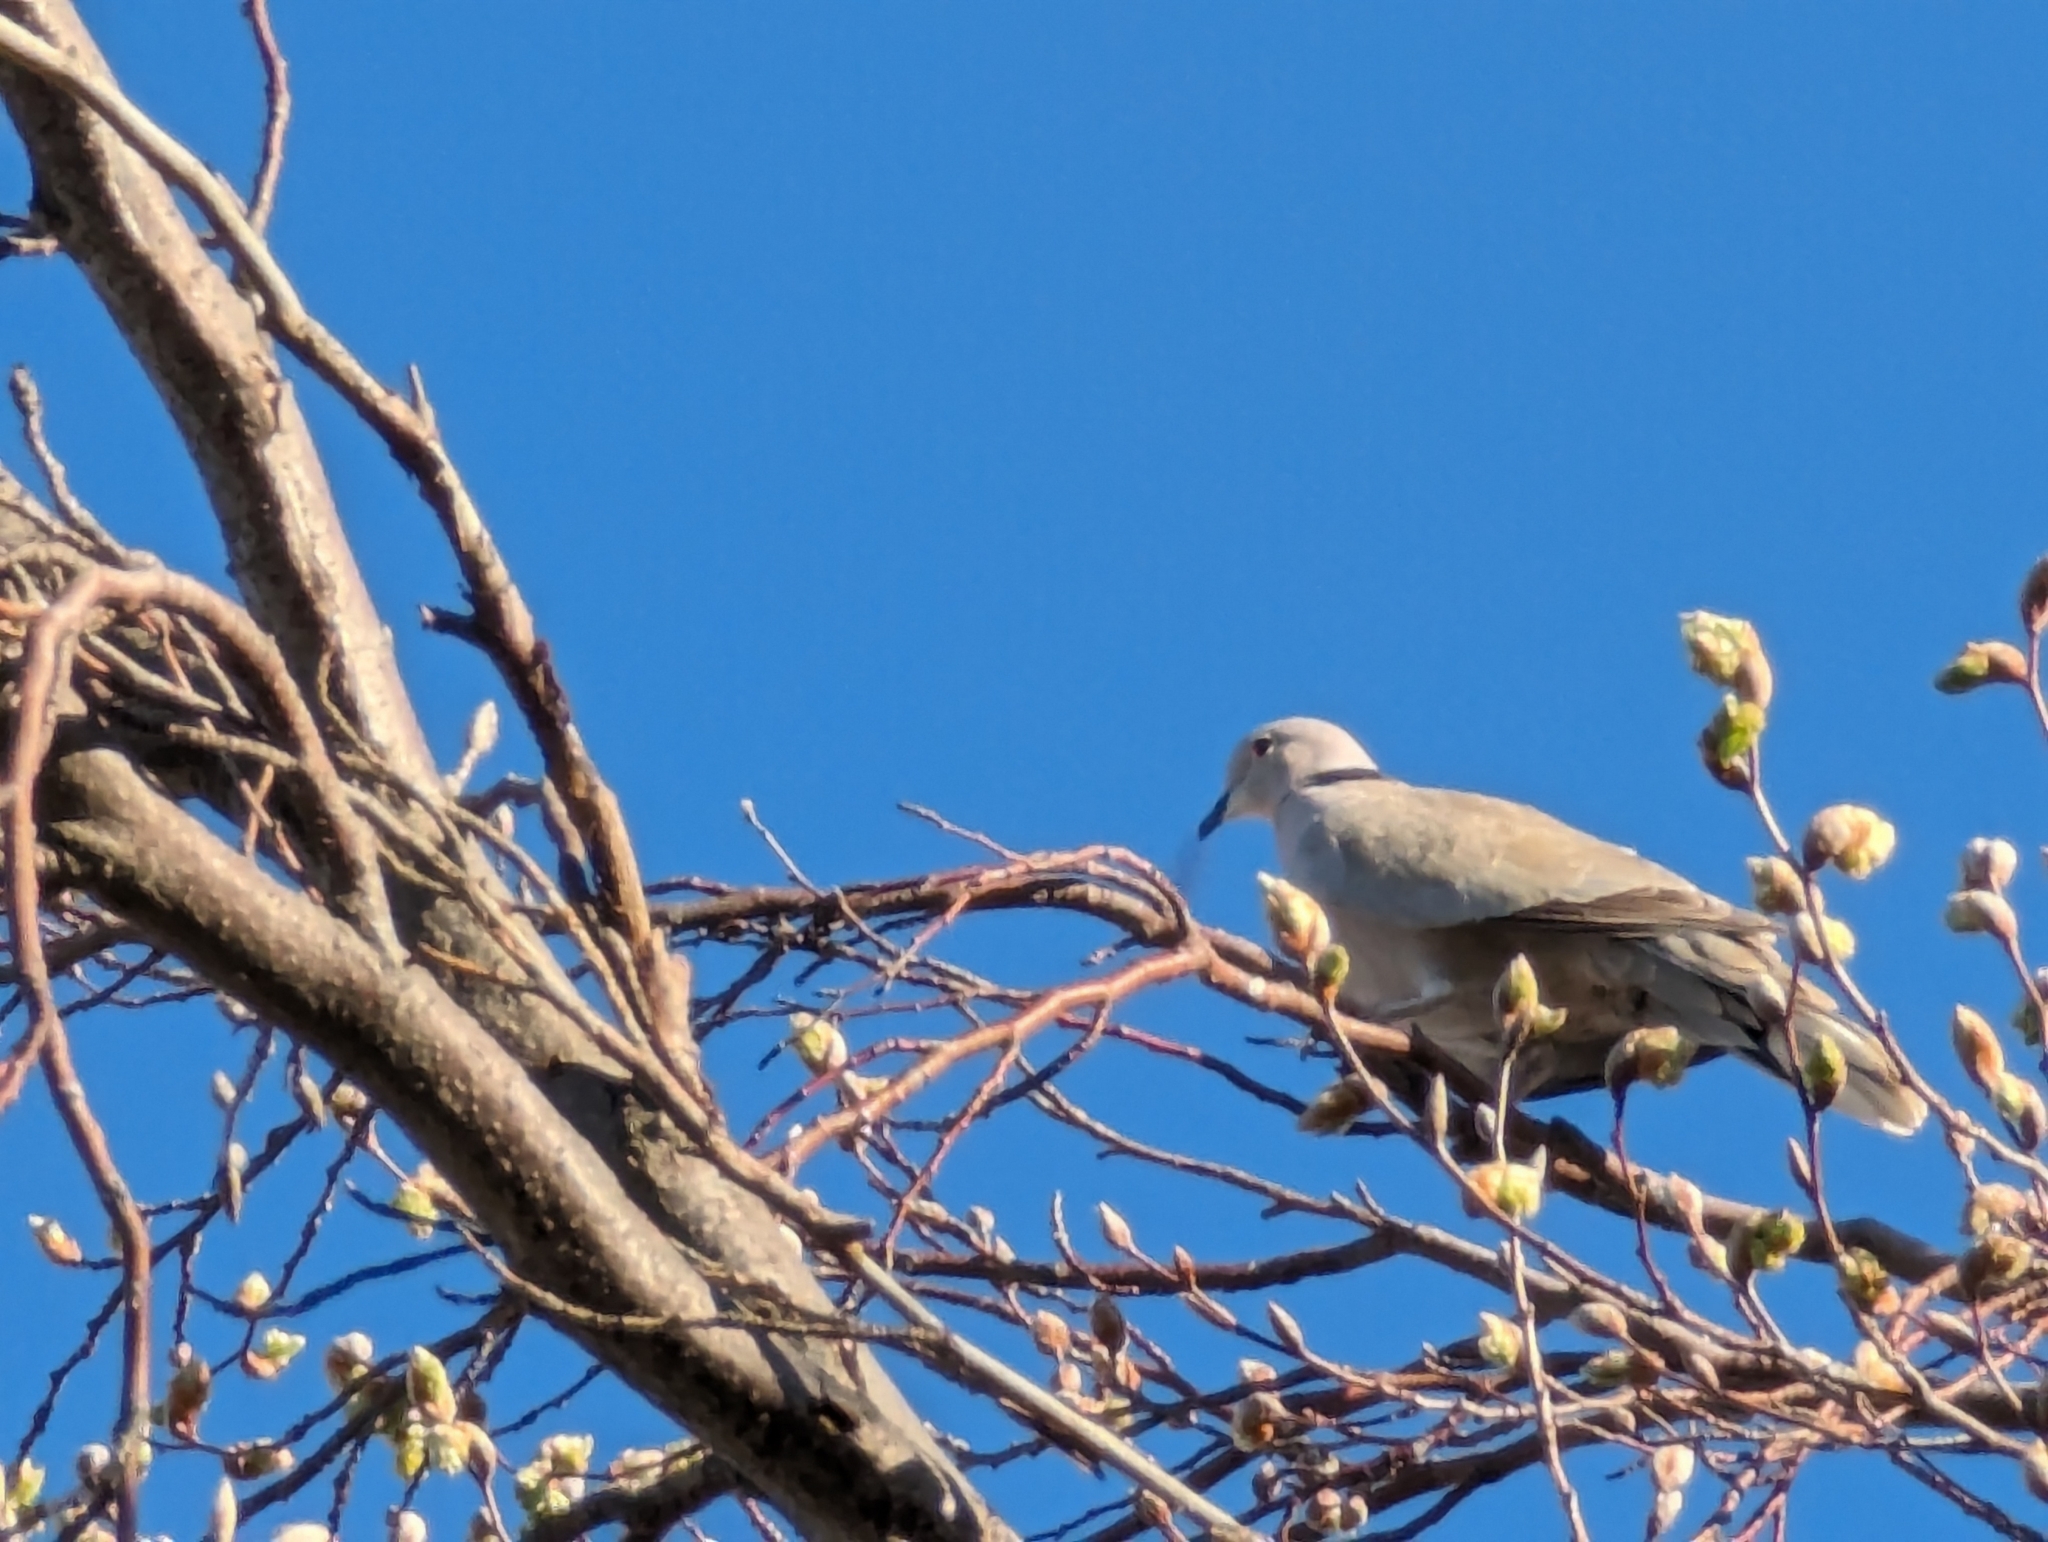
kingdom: Animalia
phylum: Chordata
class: Aves
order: Columbiformes
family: Columbidae
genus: Streptopelia
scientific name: Streptopelia decaocto
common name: Eurasian collared dove
